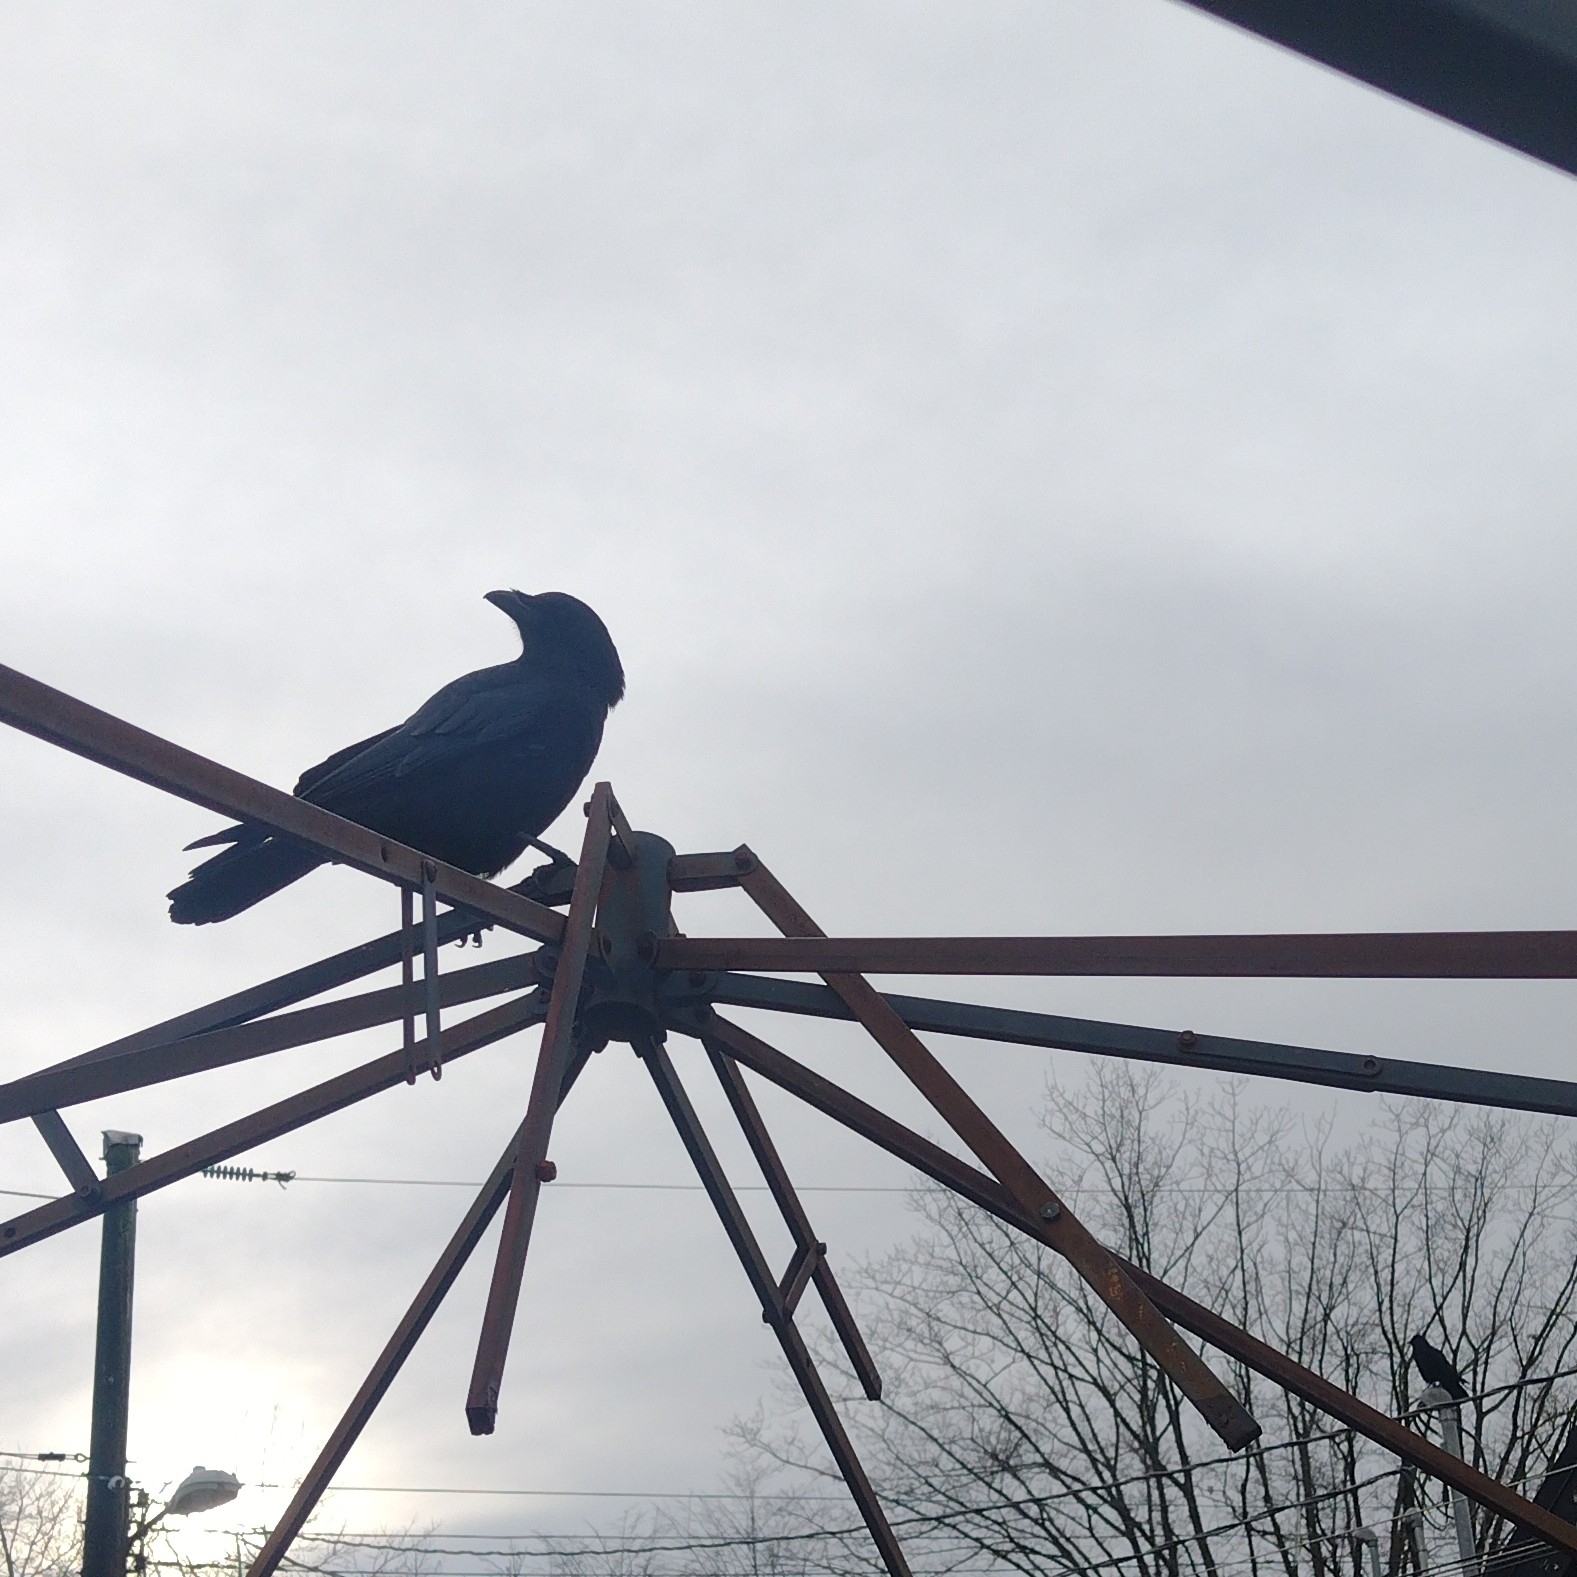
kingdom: Animalia
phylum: Chordata
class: Aves
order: Passeriformes
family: Corvidae
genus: Corvus
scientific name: Corvus brachyrhynchos
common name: American crow
